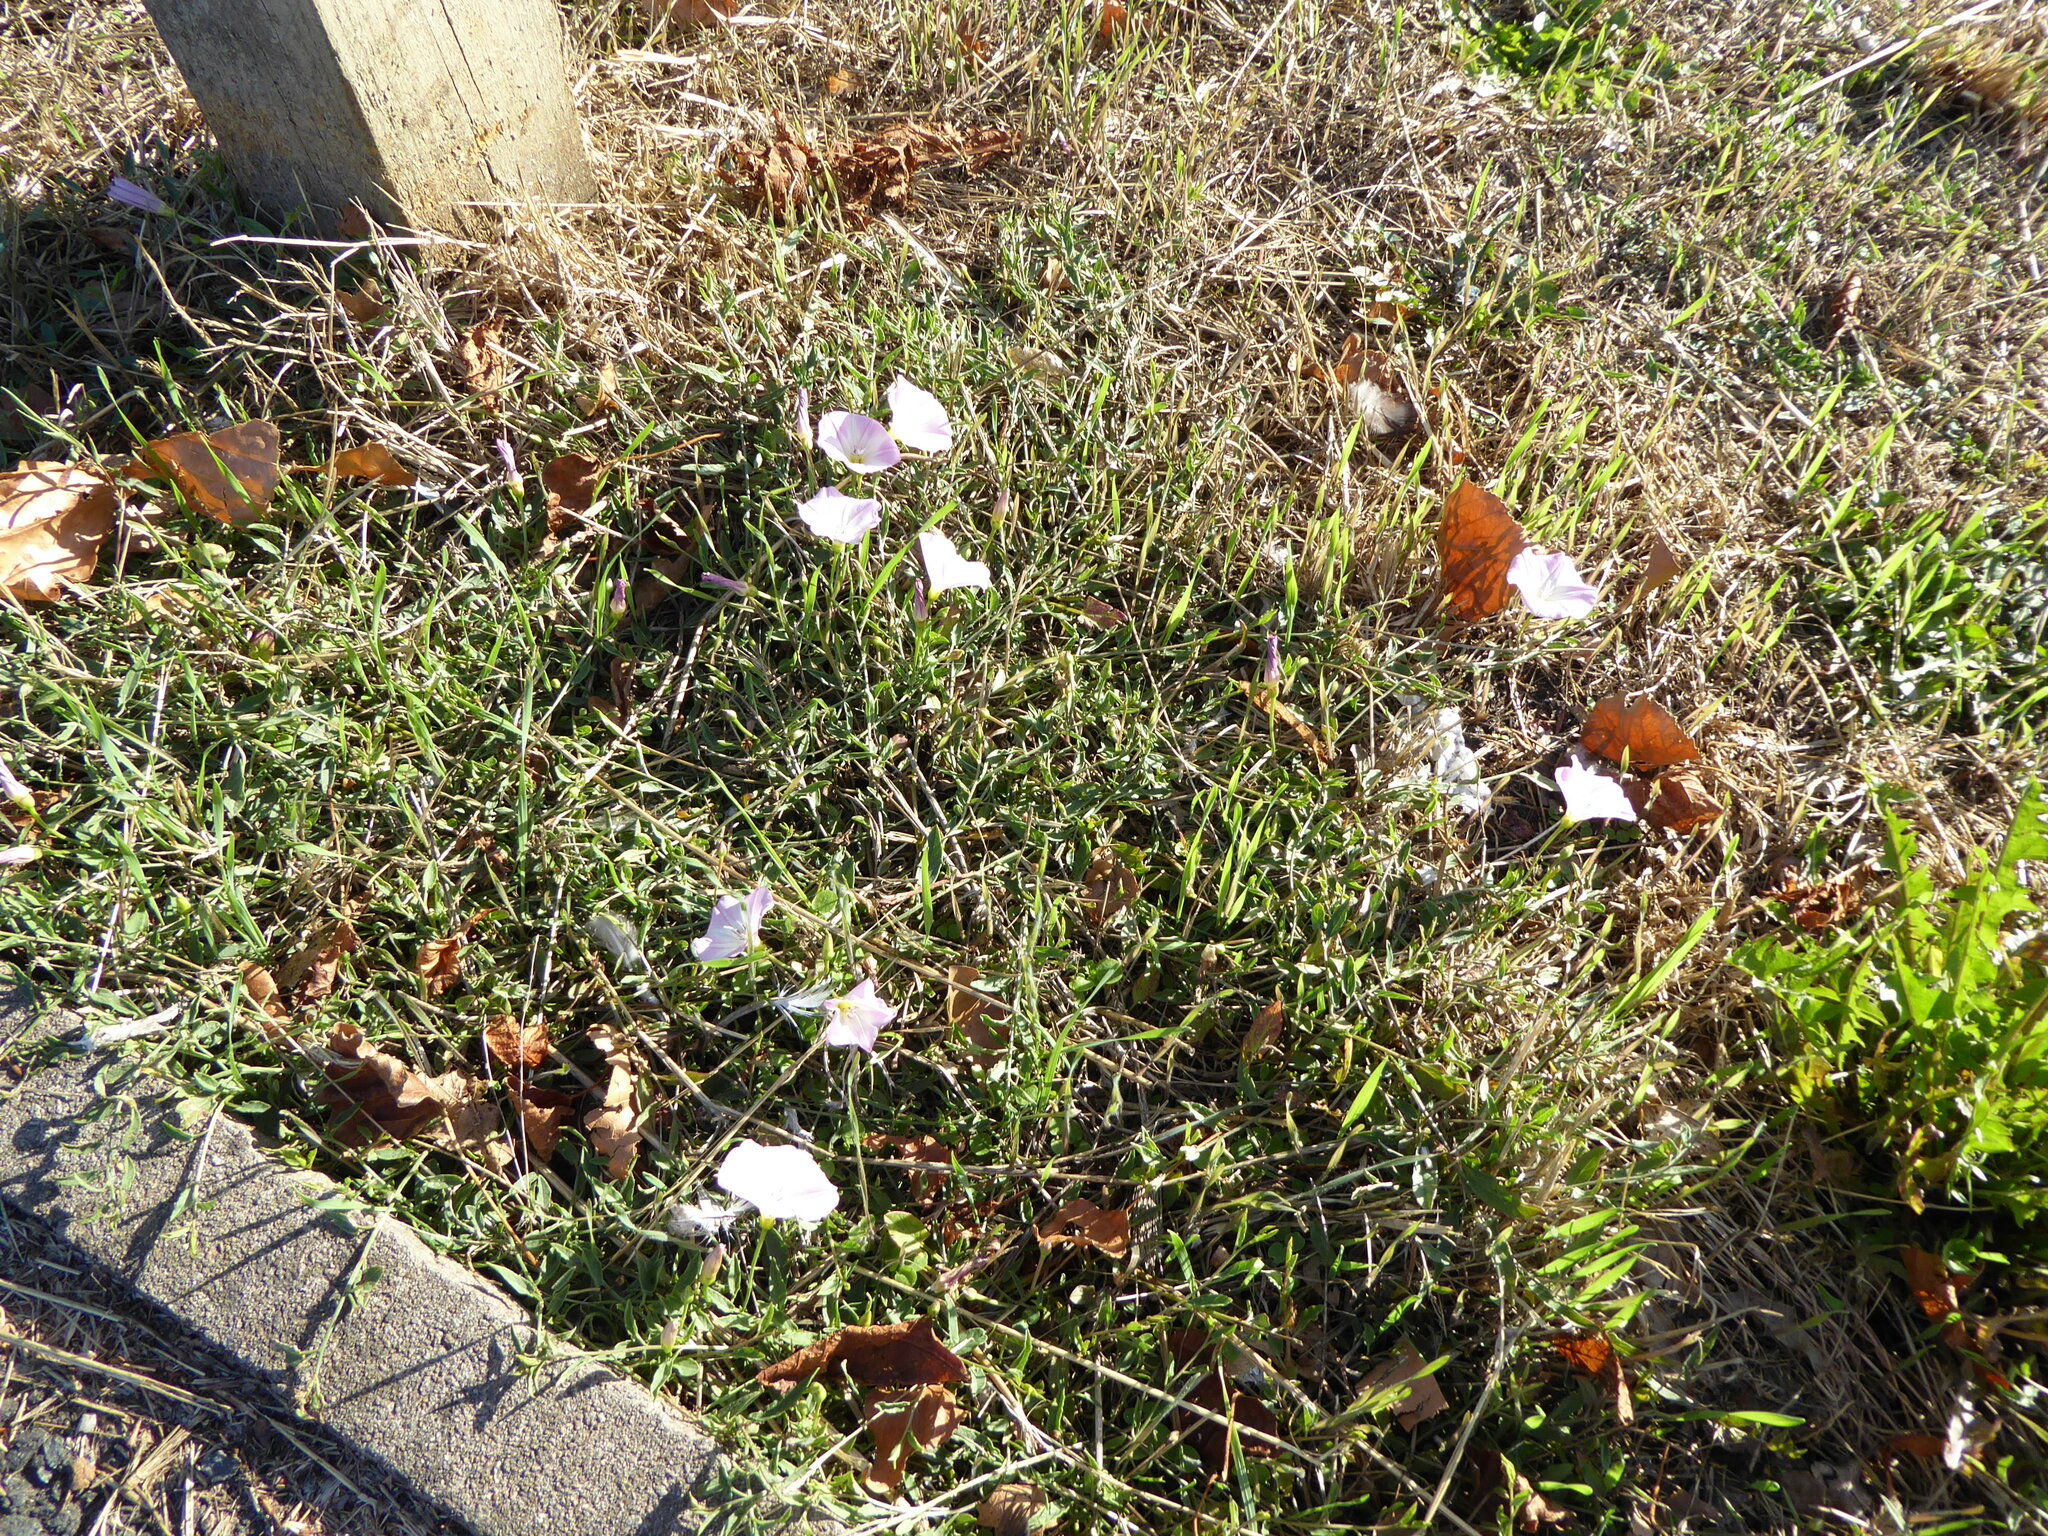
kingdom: Plantae
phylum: Tracheophyta
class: Magnoliopsida
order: Solanales
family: Convolvulaceae
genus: Convolvulus
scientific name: Convolvulus arvensis
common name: Field bindweed
